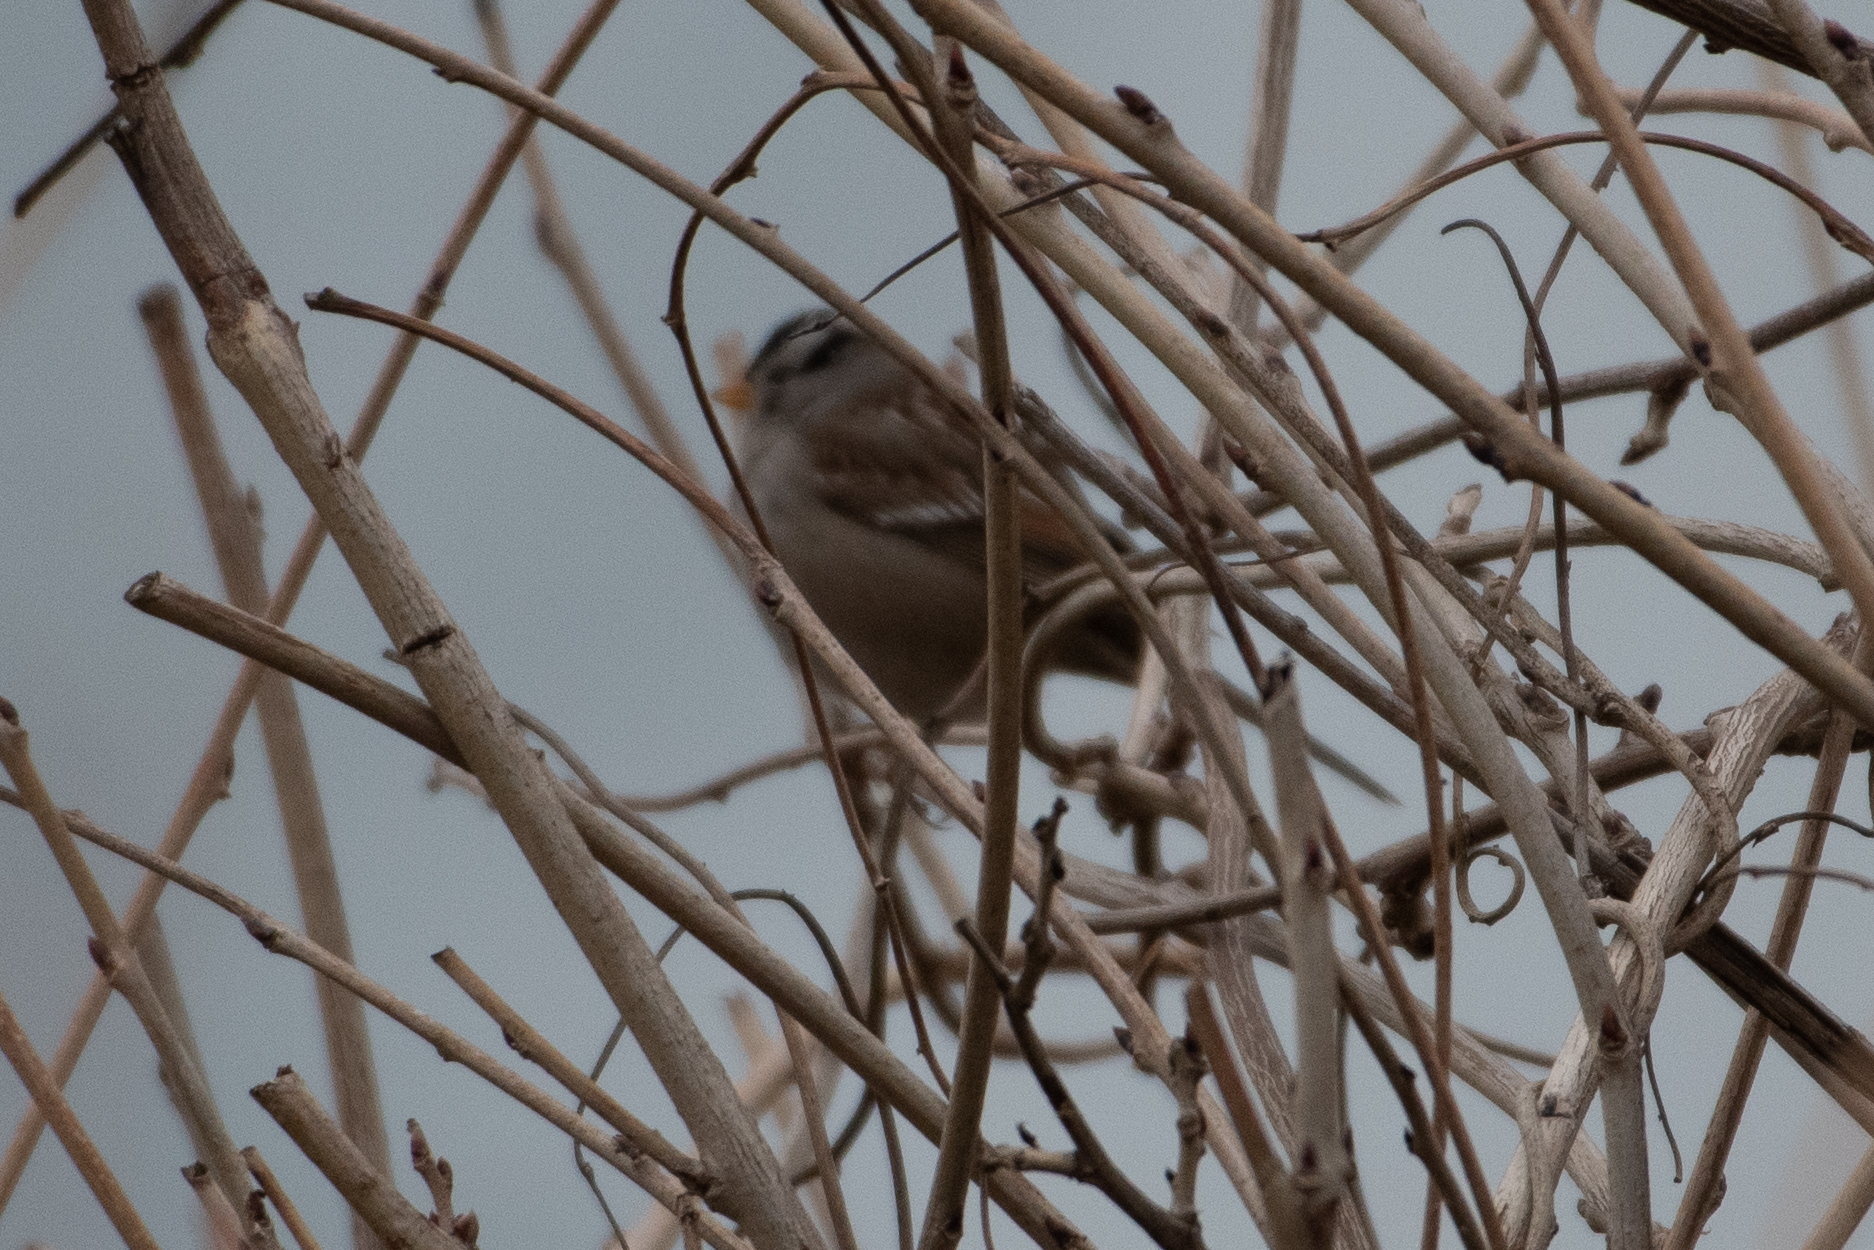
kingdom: Animalia
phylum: Chordata
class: Aves
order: Passeriformes
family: Passerellidae
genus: Zonotrichia
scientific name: Zonotrichia leucophrys
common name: White-crowned sparrow
